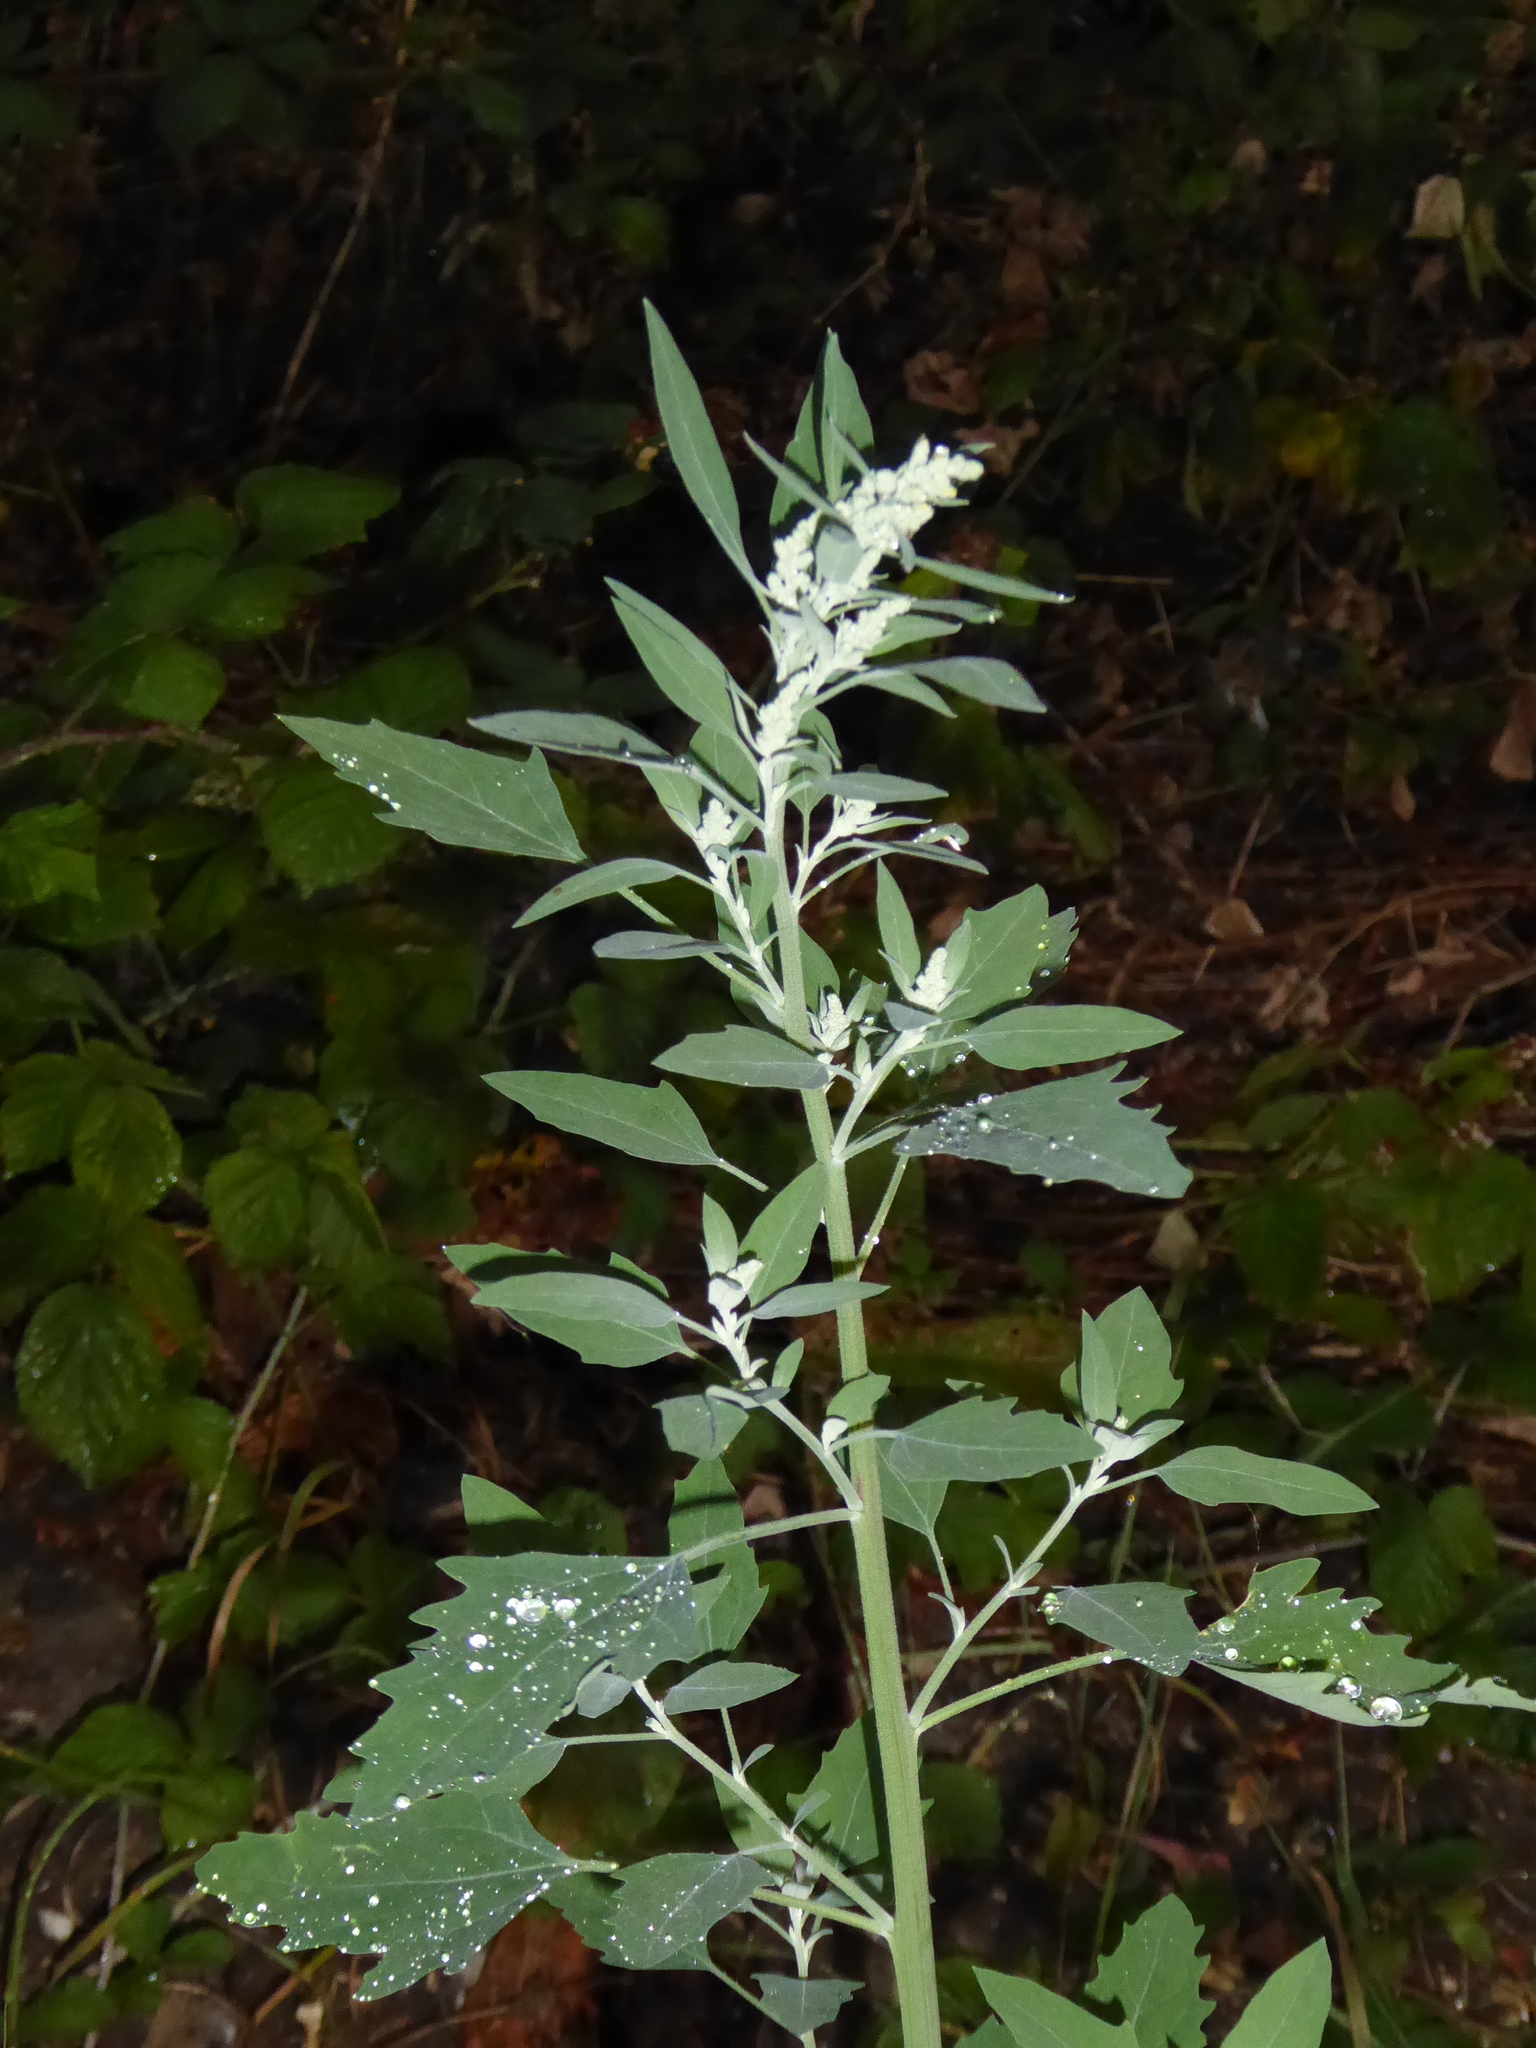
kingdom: Plantae
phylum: Tracheophyta
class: Magnoliopsida
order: Caryophyllales
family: Amaranthaceae
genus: Chenopodium
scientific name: Chenopodium album
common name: Fat-hen
